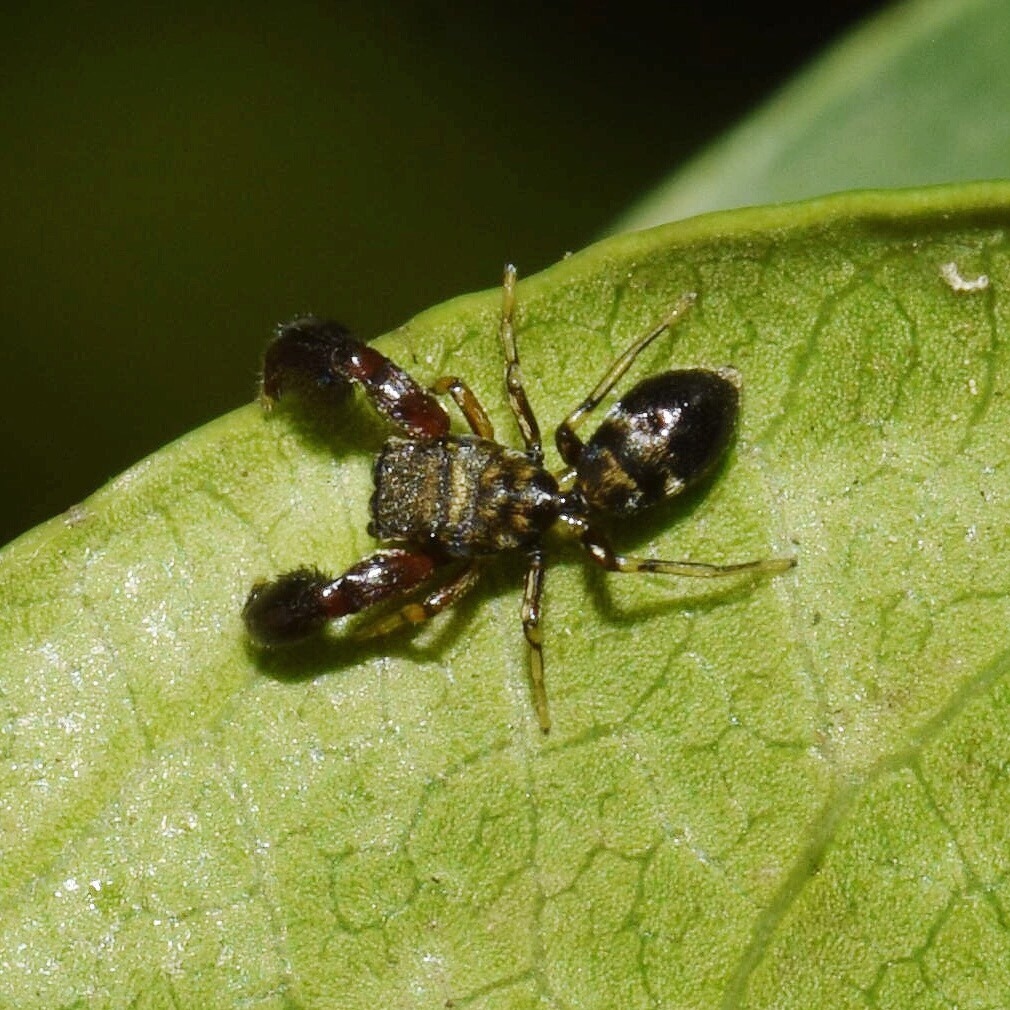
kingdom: Animalia
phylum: Arthropoda
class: Arachnida
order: Araneae
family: Salticidae
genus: Afromarengo
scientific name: Afromarengo coriacea
